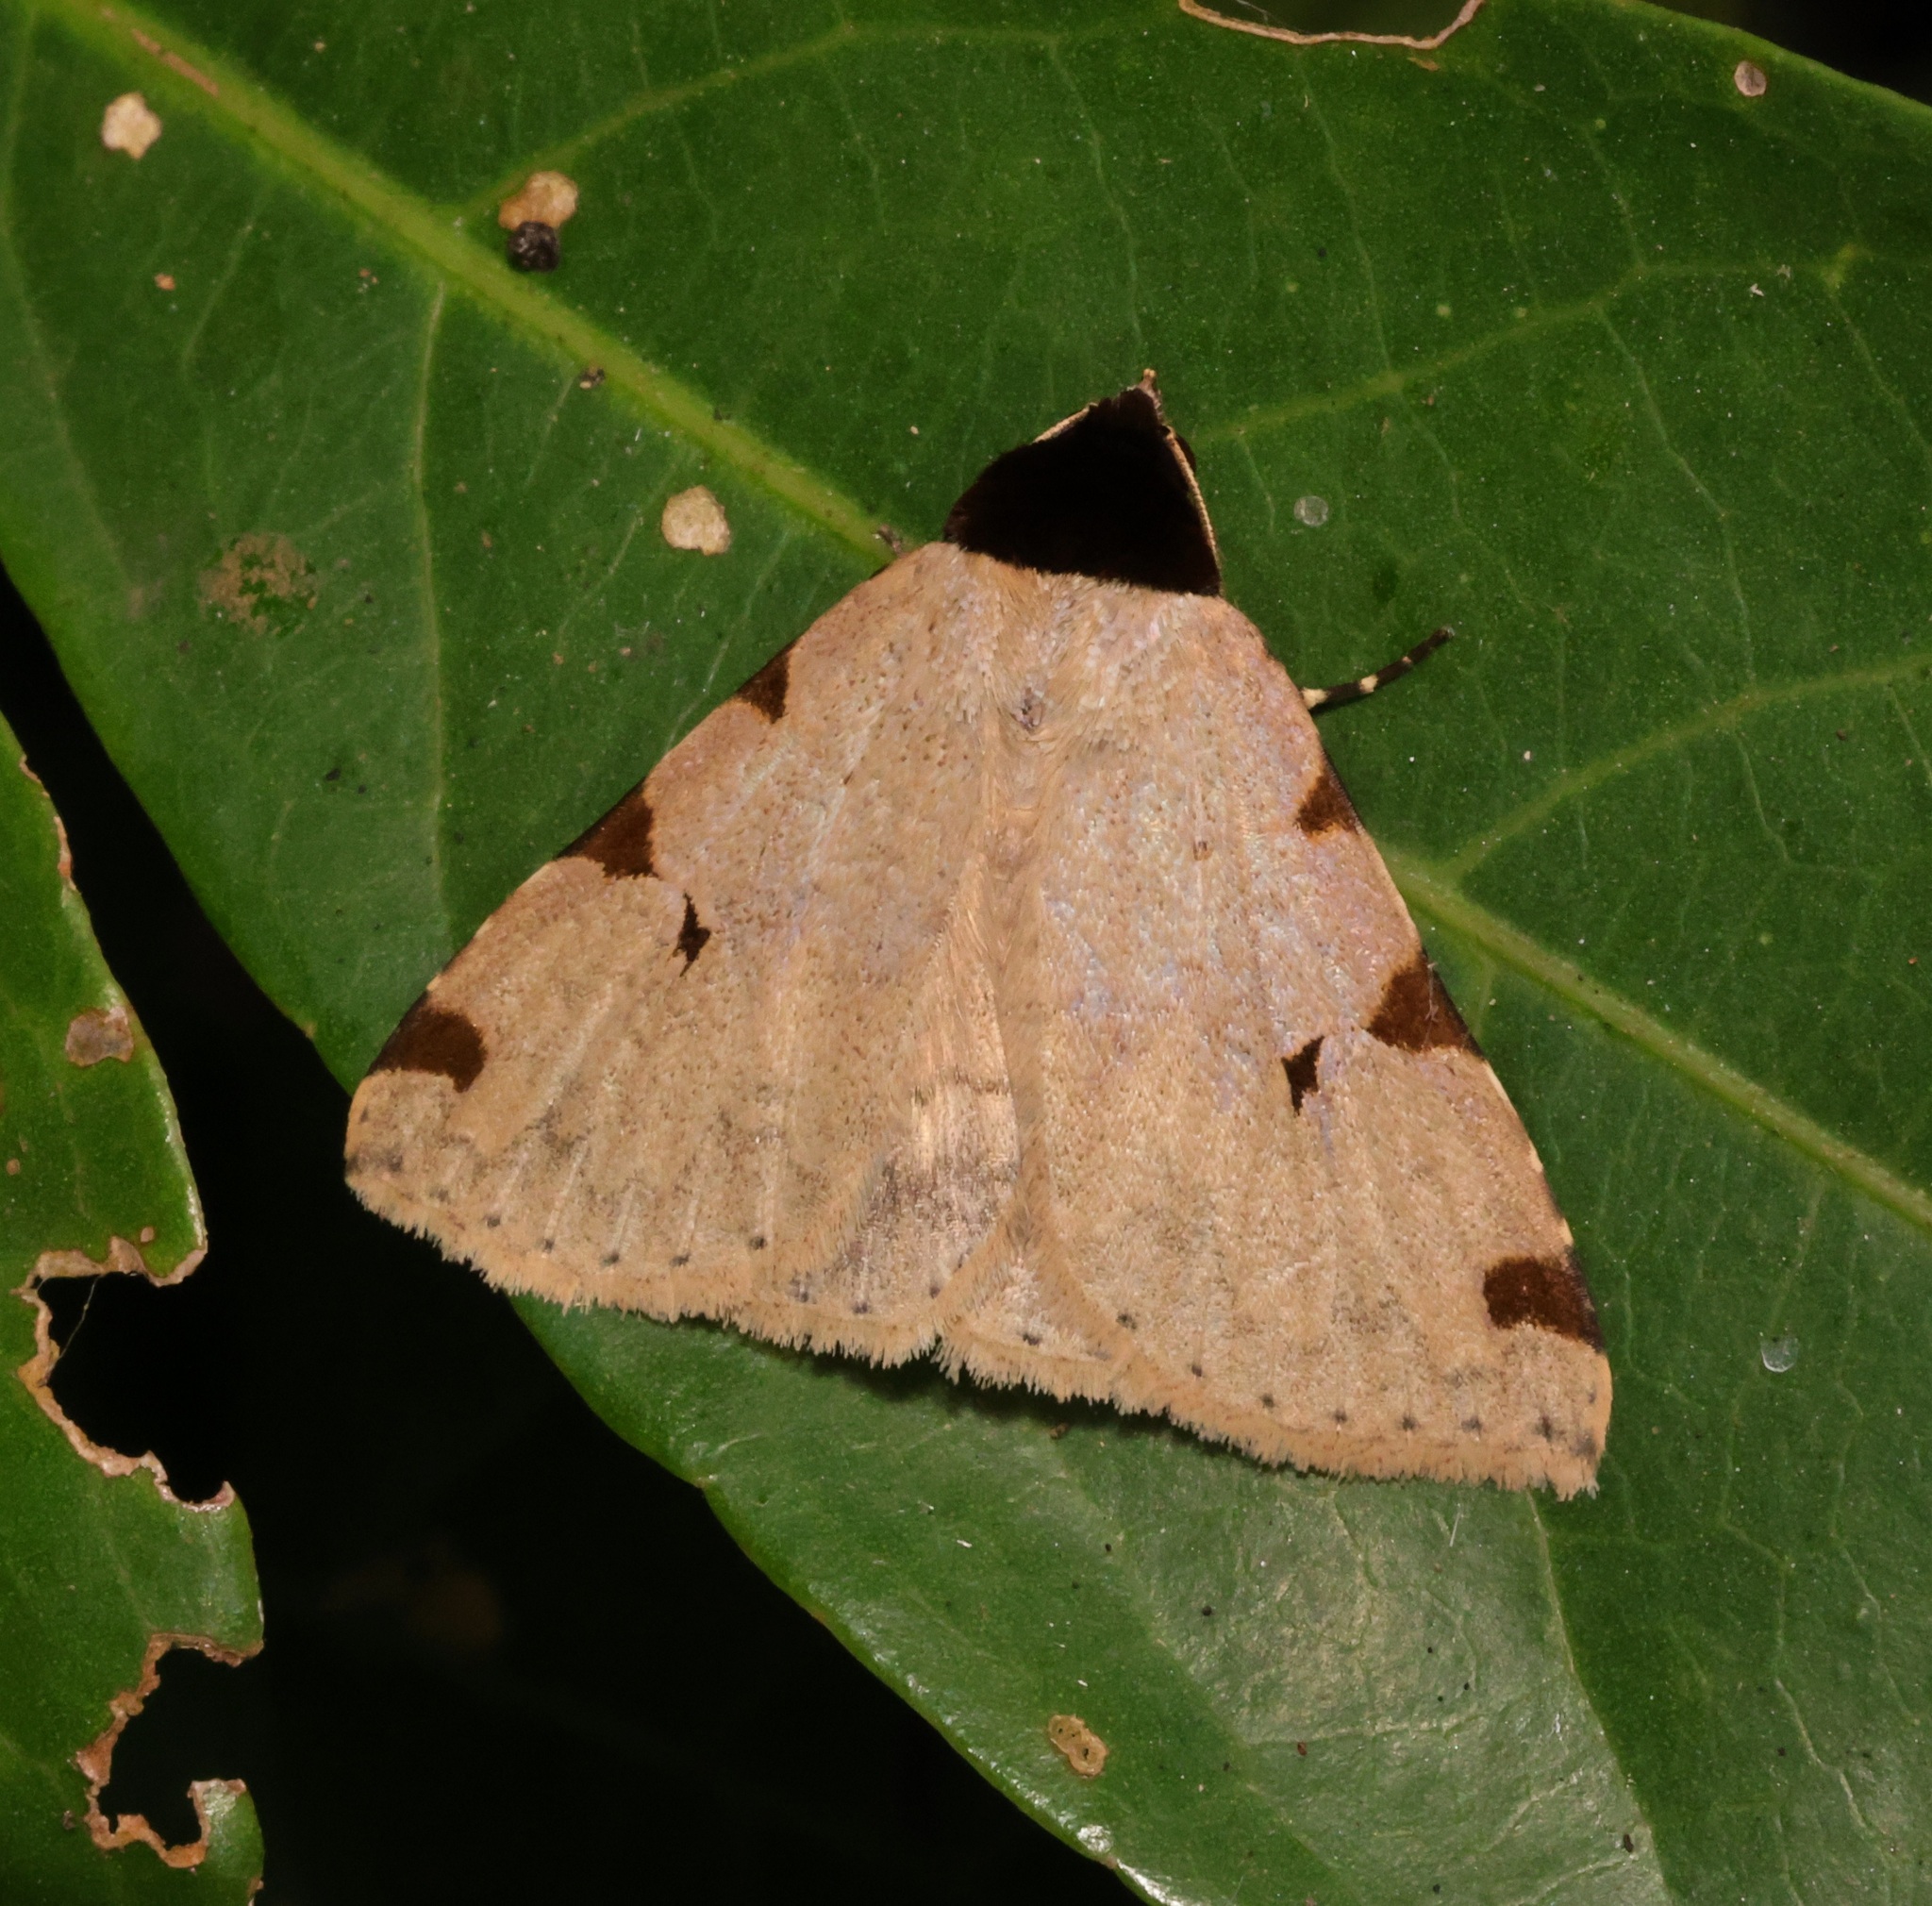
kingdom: Animalia
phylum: Arthropoda
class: Insecta
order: Lepidoptera
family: Erebidae
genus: Rema
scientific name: Rema costimacula
